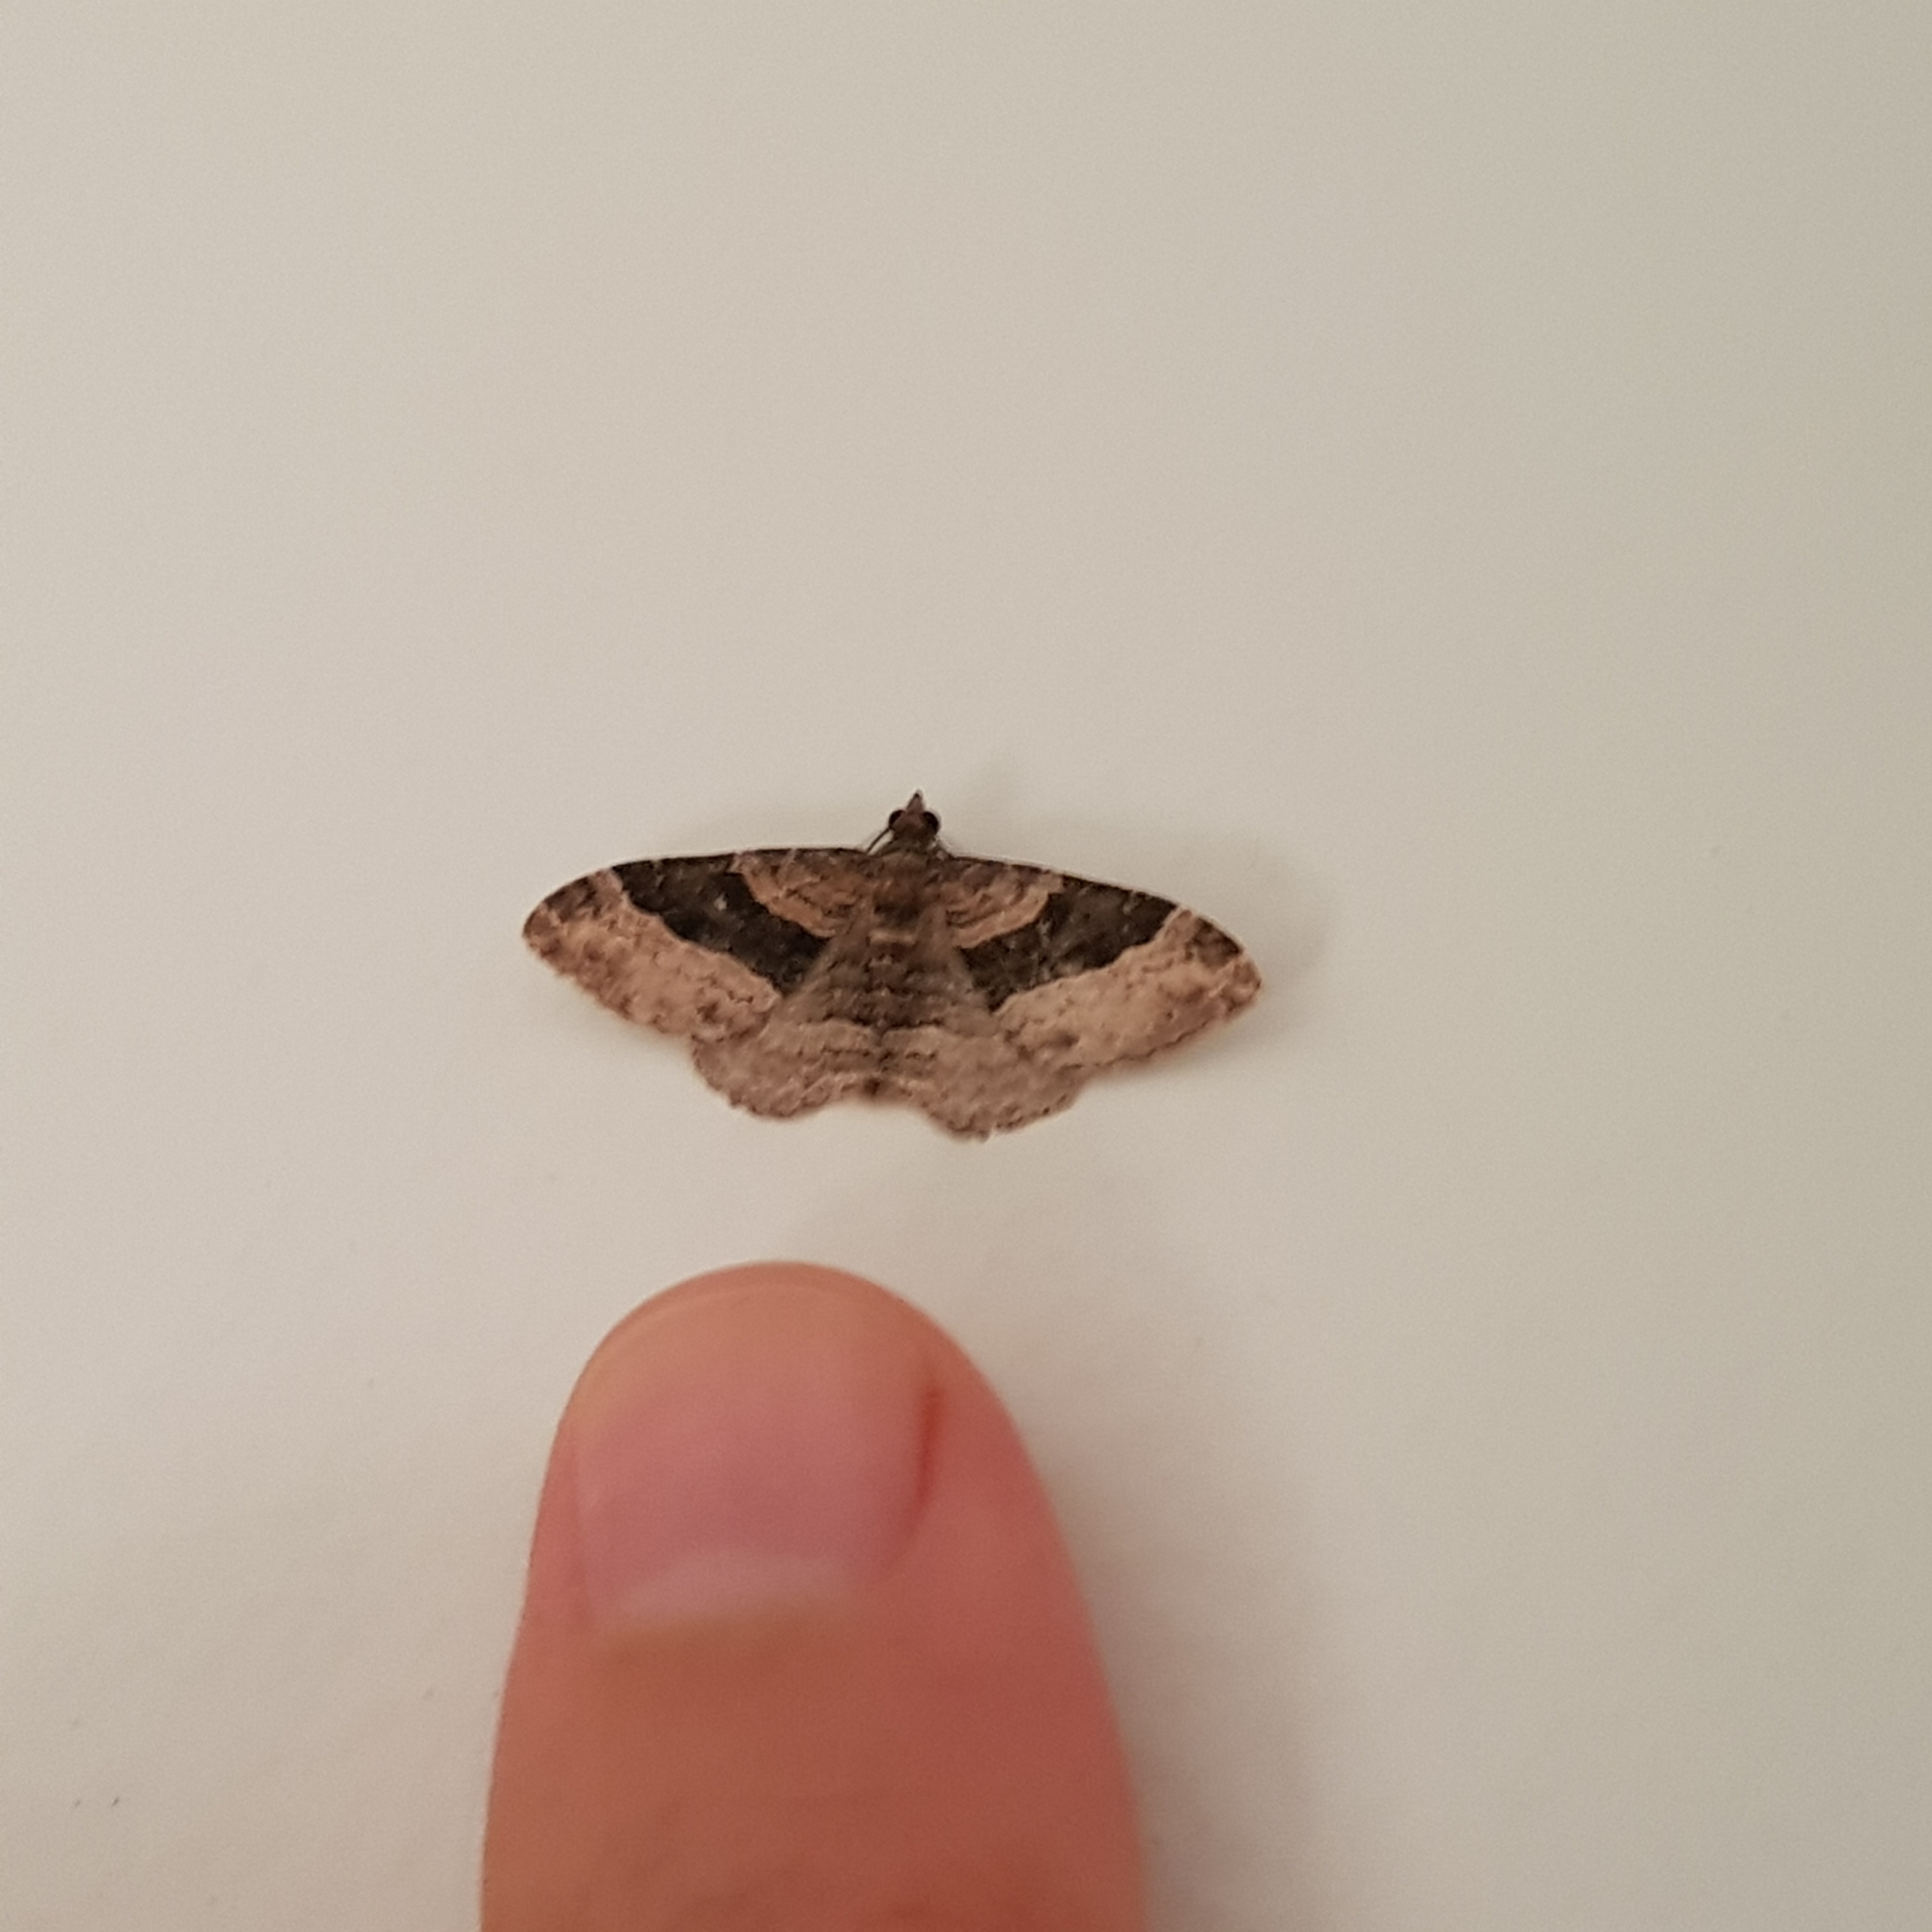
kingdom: Animalia
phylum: Arthropoda
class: Insecta
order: Lepidoptera
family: Geometridae
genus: Epyaxa
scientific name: Epyaxa lucidata
